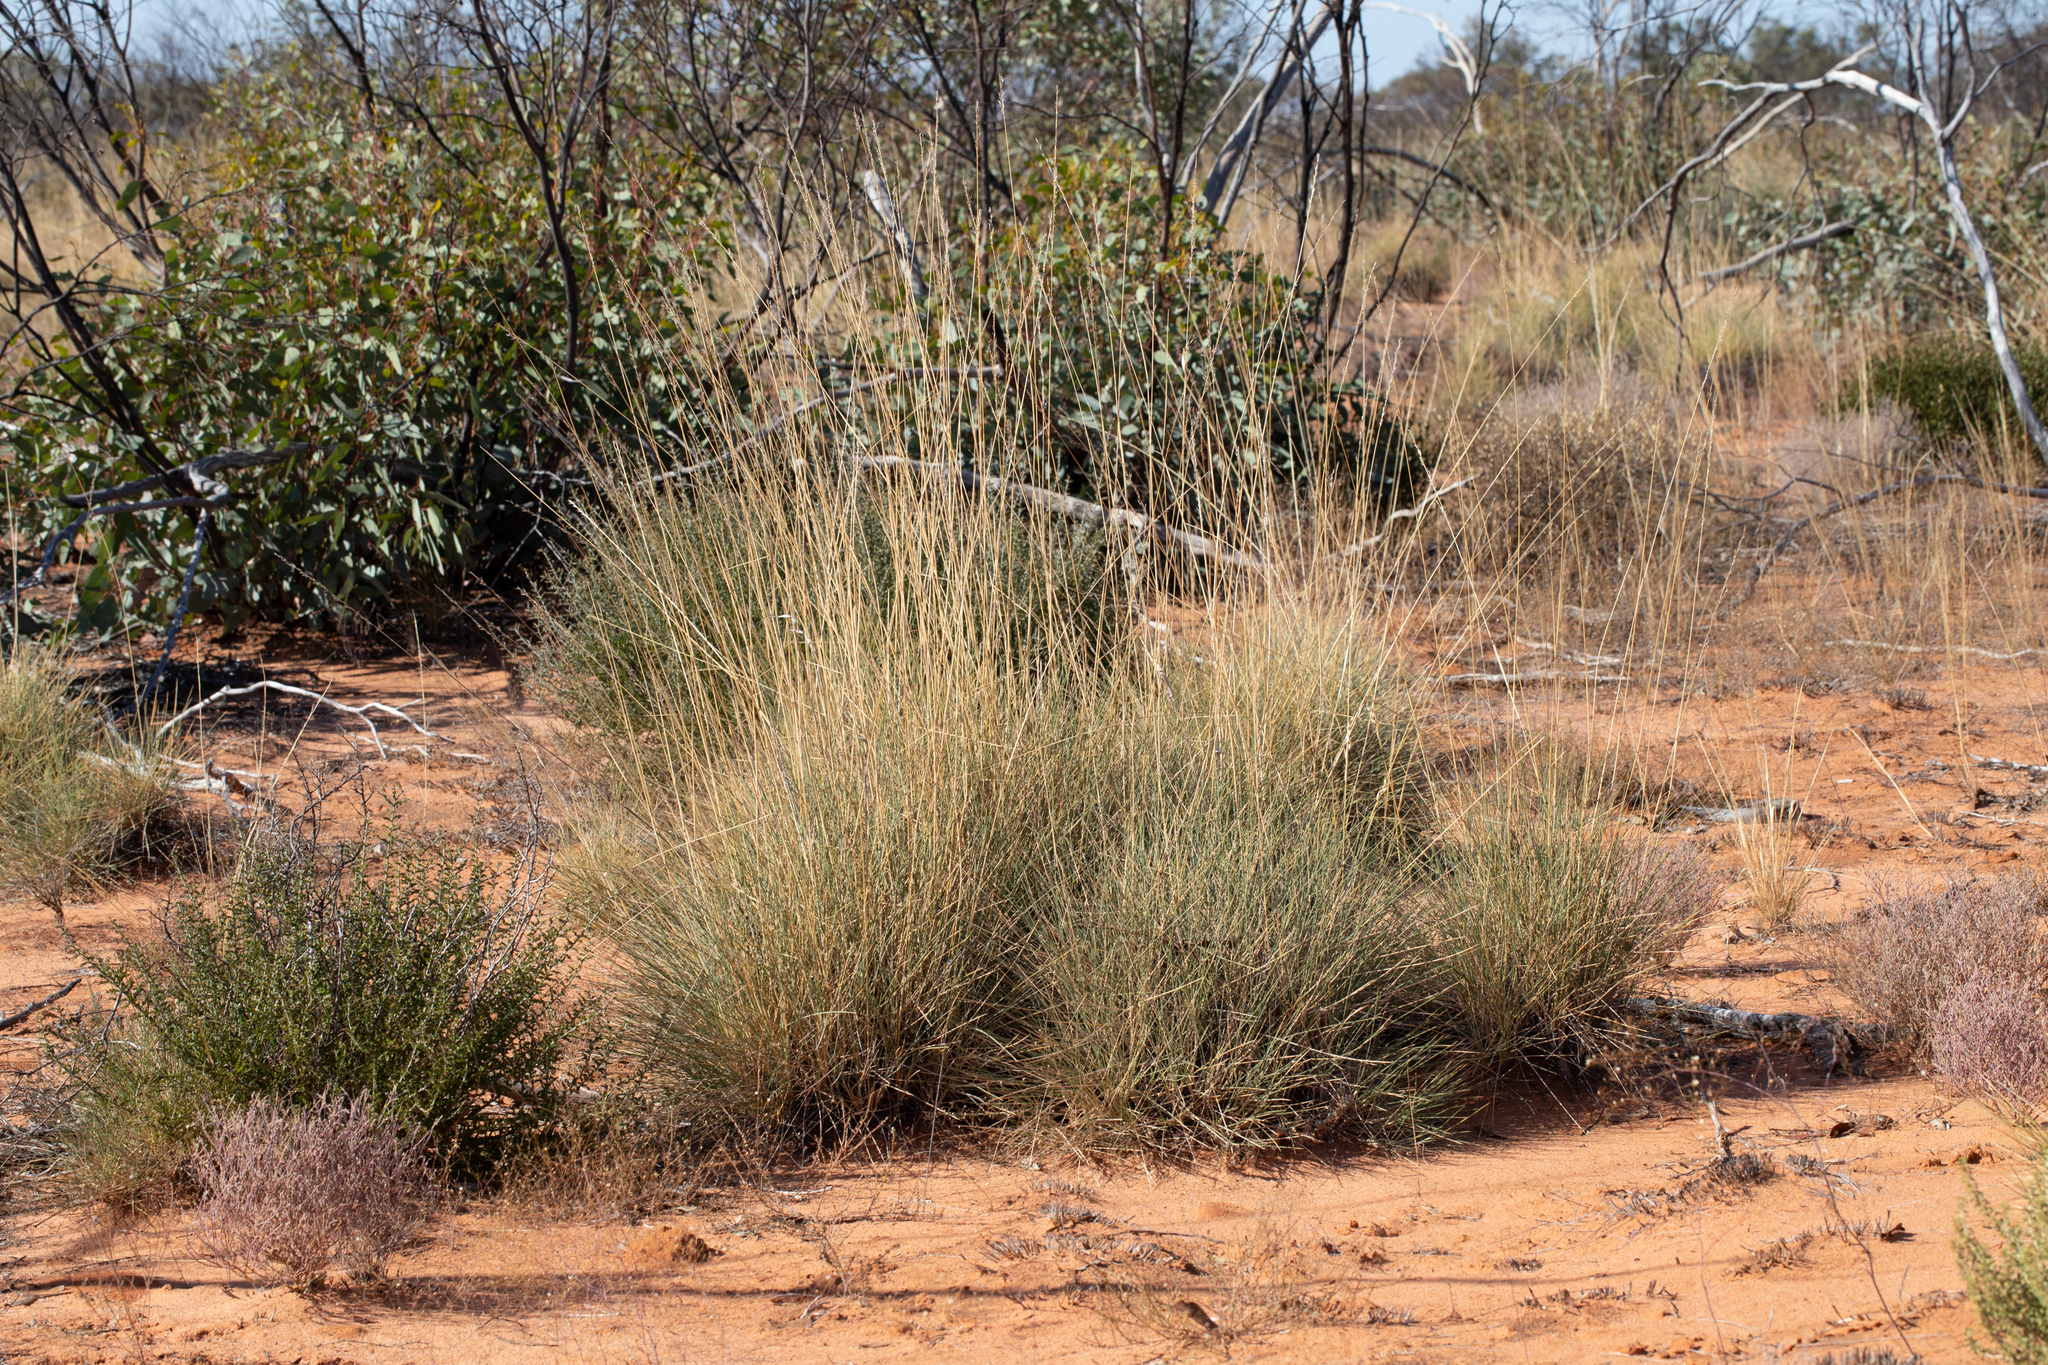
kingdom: Plantae
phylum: Tracheophyta
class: Liliopsida
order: Poales
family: Poaceae
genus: Triodia
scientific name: Triodia scariosa
